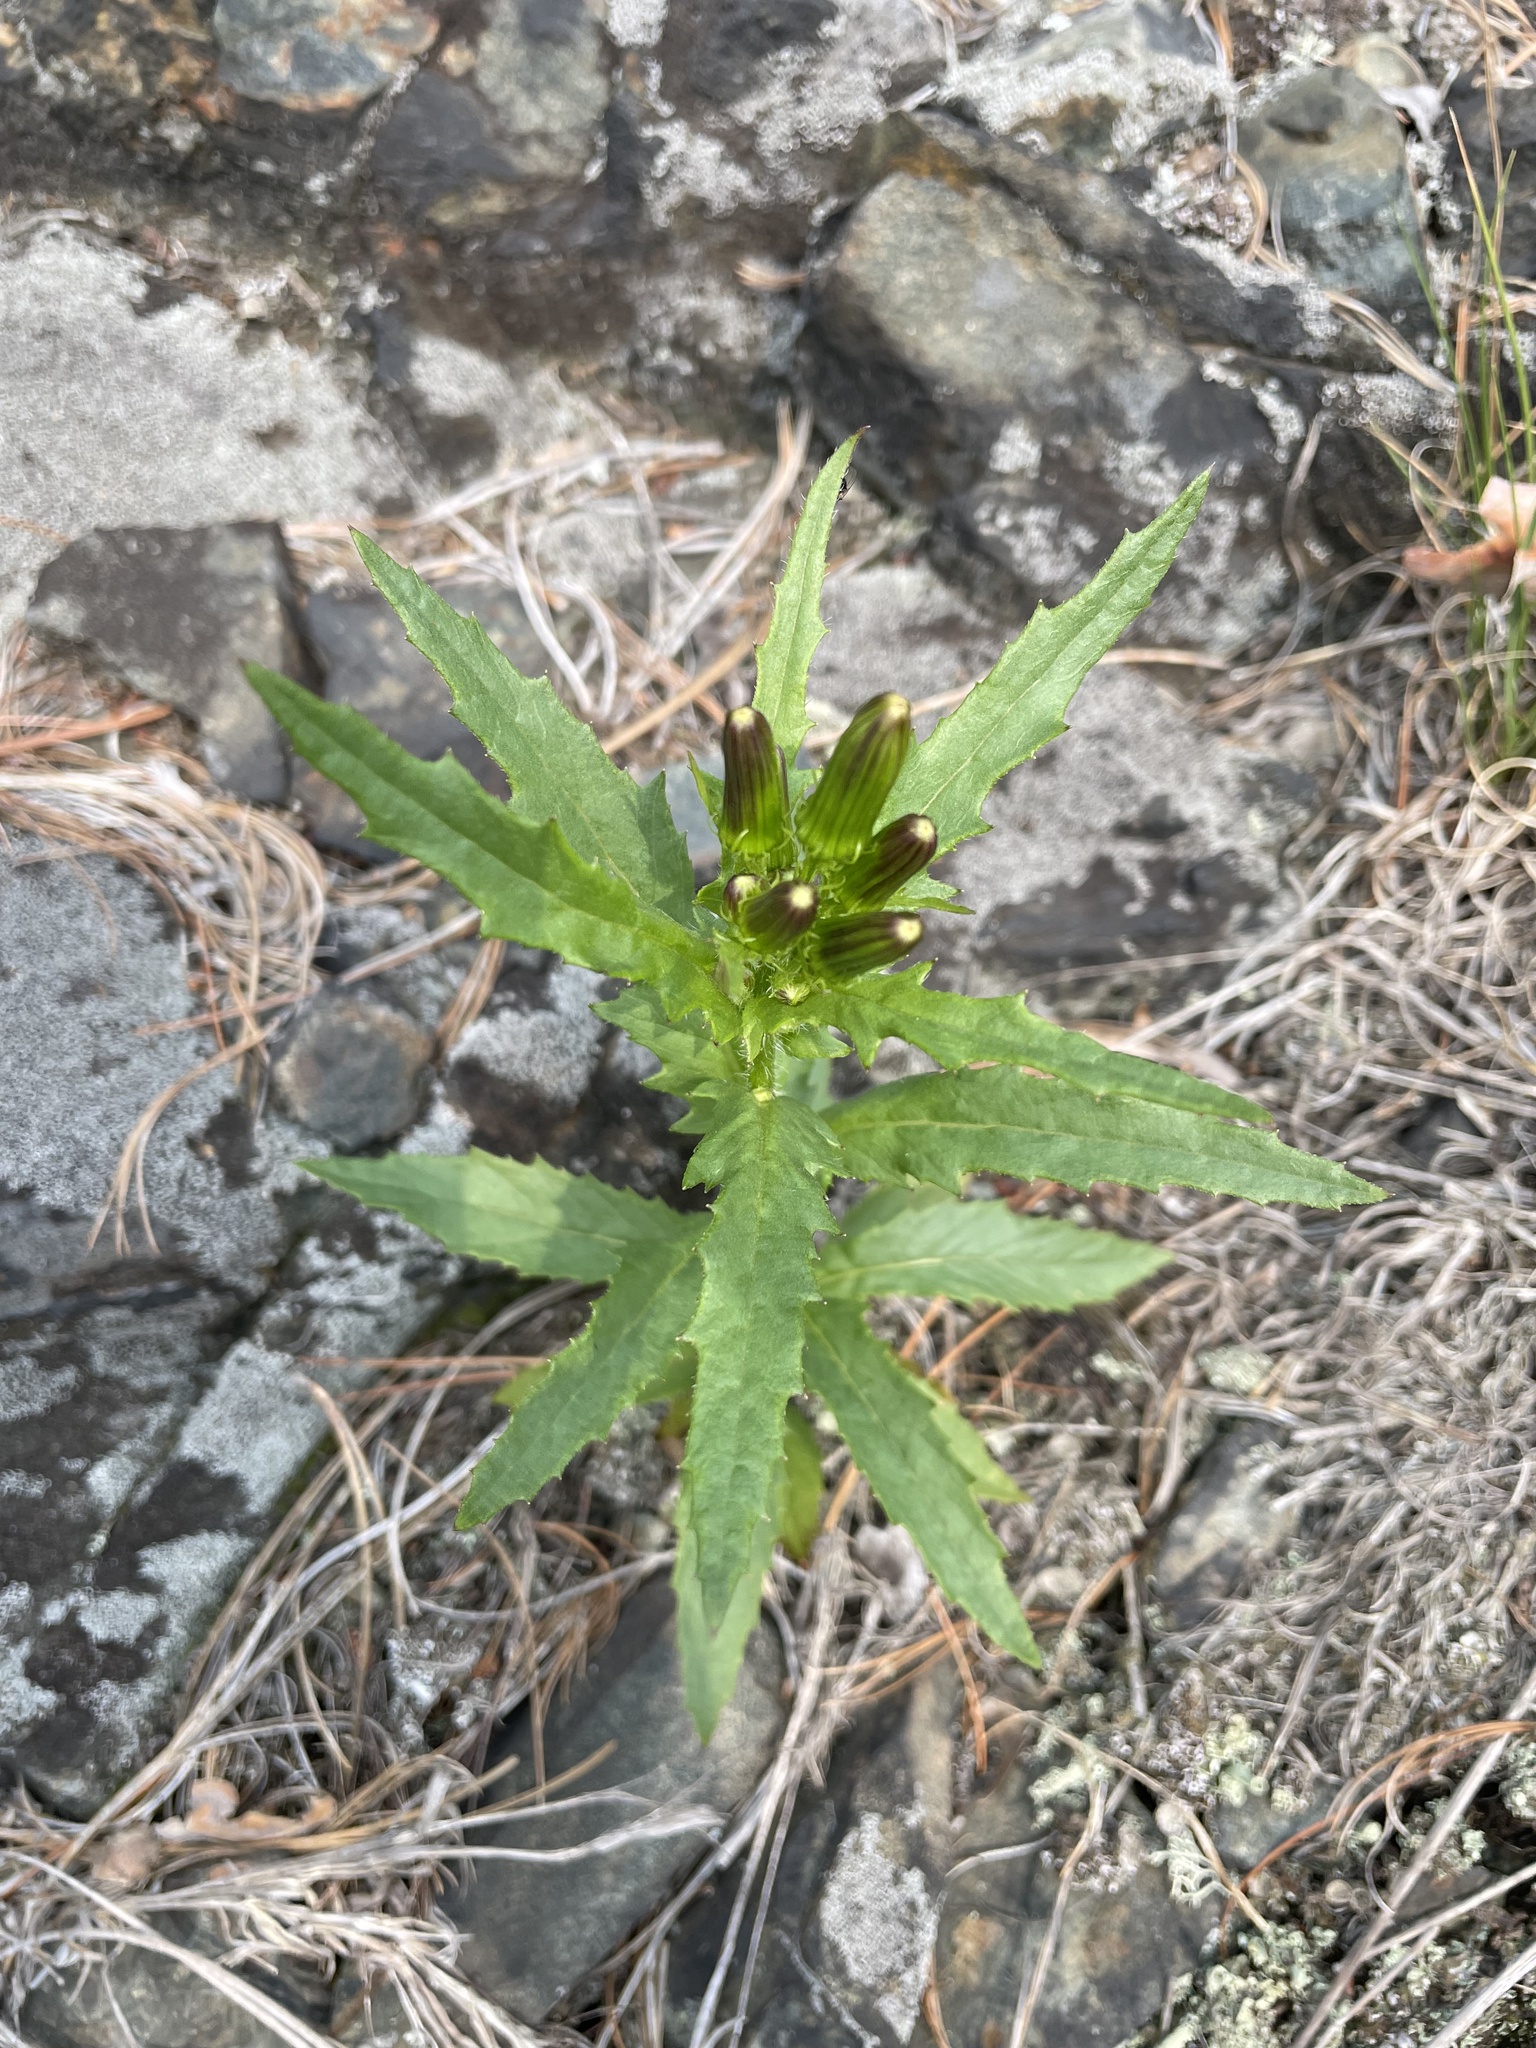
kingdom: Plantae
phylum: Tracheophyta
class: Magnoliopsida
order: Asterales
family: Asteraceae
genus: Erechtites
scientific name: Erechtites hieraciifolius
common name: American burnweed
